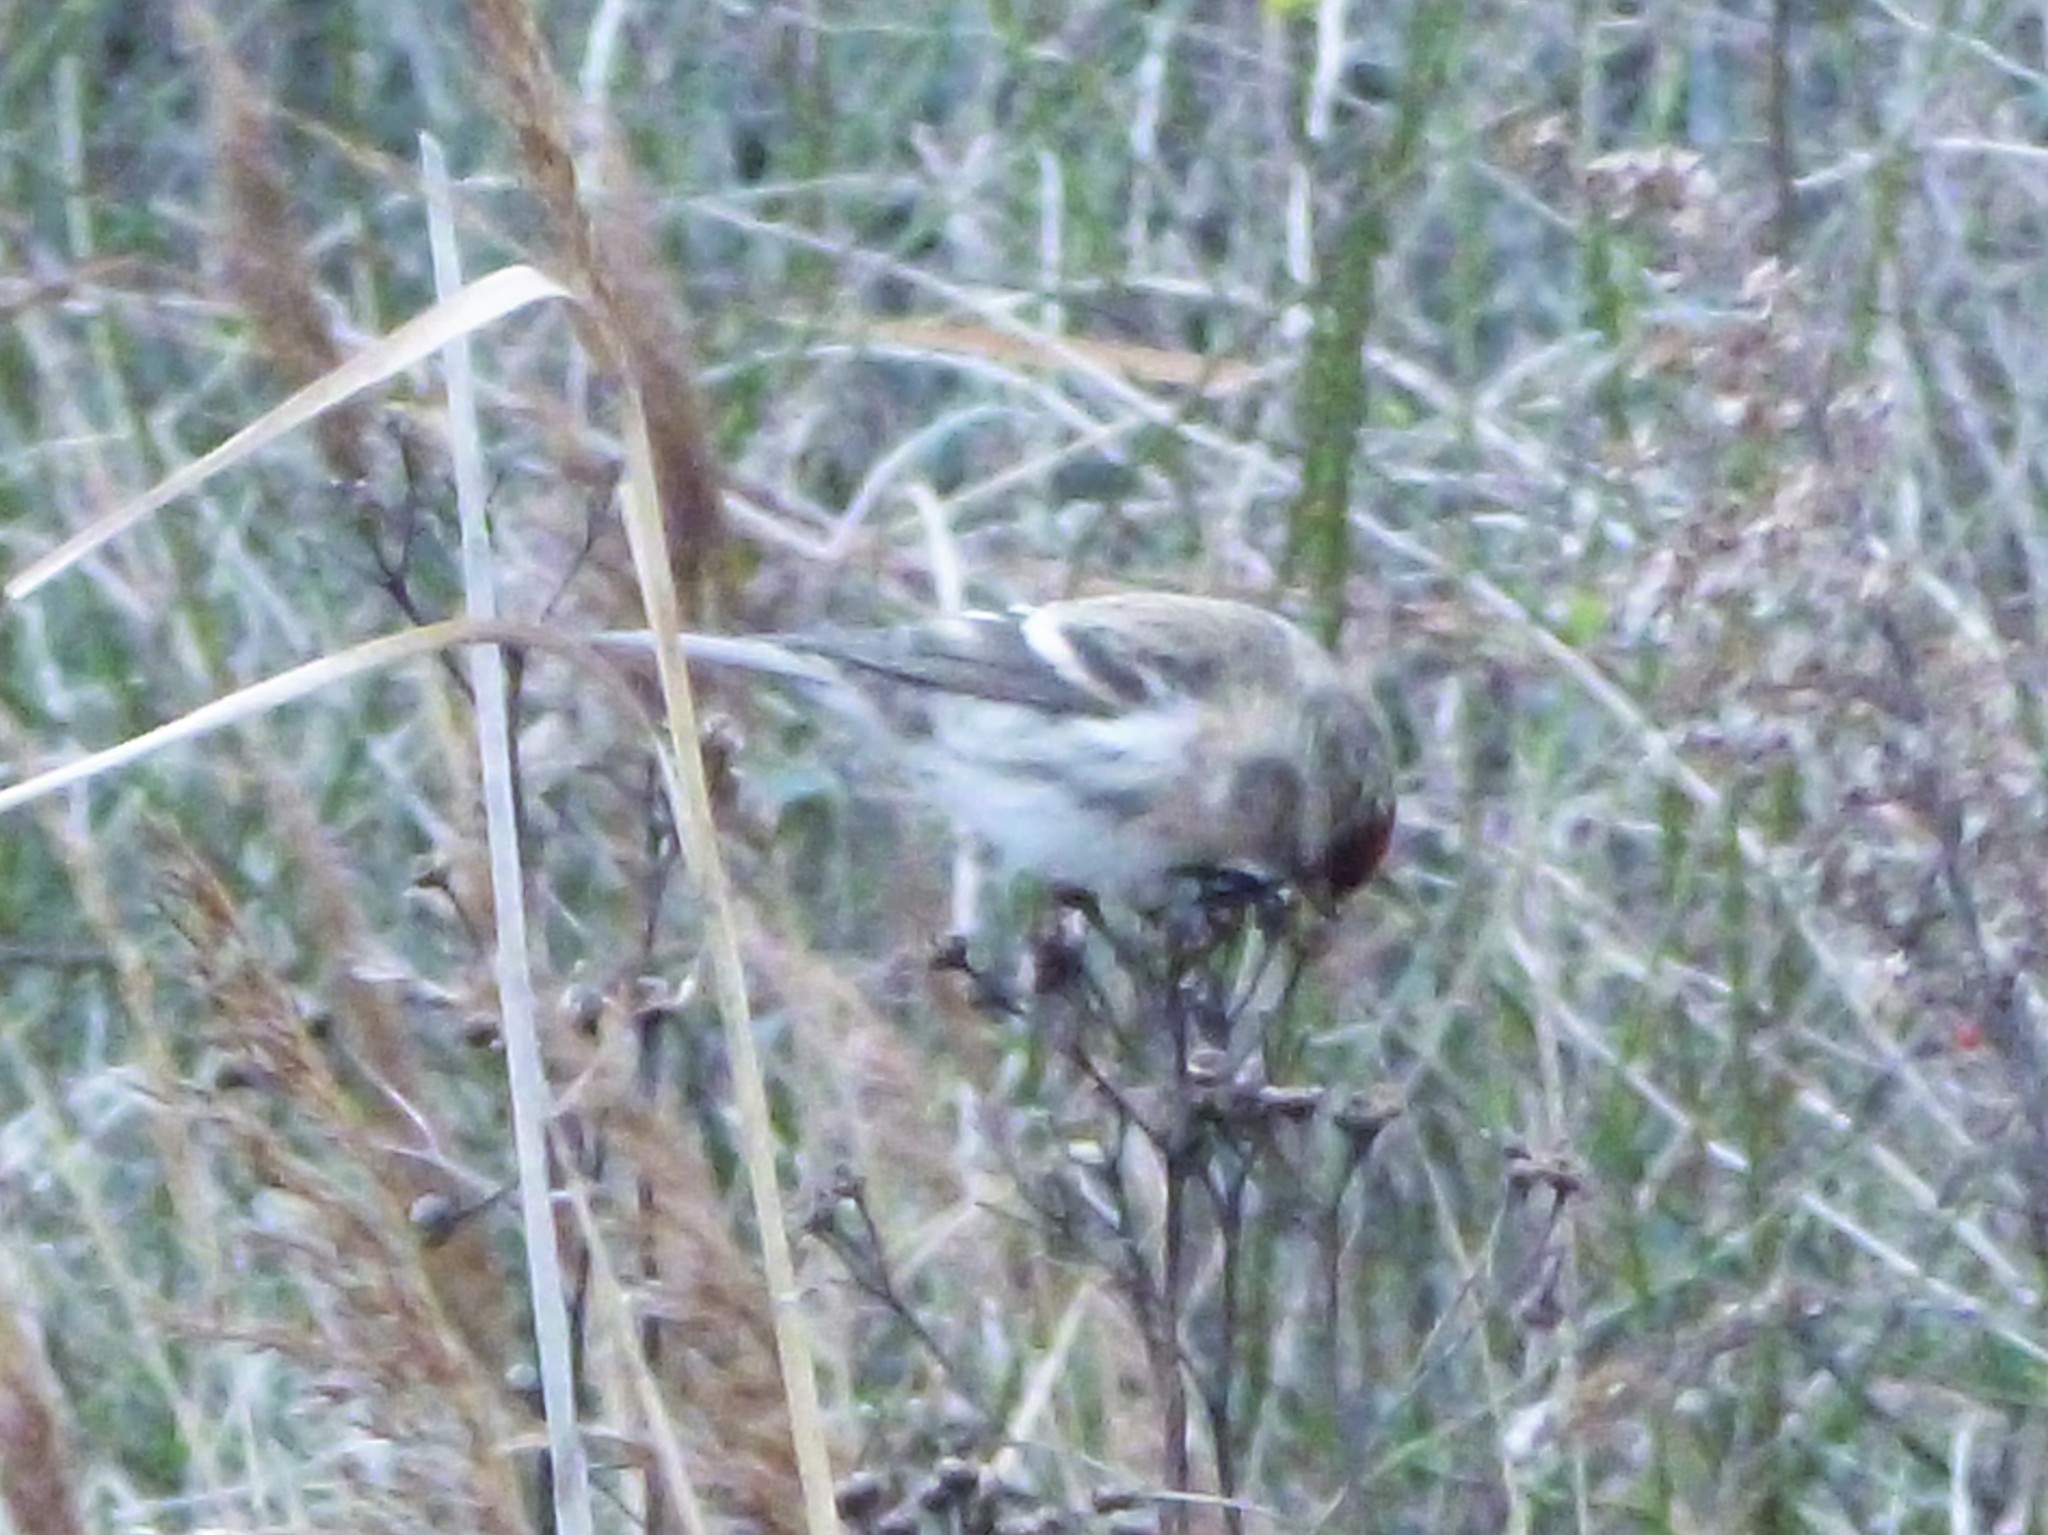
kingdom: Animalia
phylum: Chordata
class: Aves
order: Passeriformes
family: Fringillidae
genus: Acanthis
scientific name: Acanthis flammea
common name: Common redpoll
